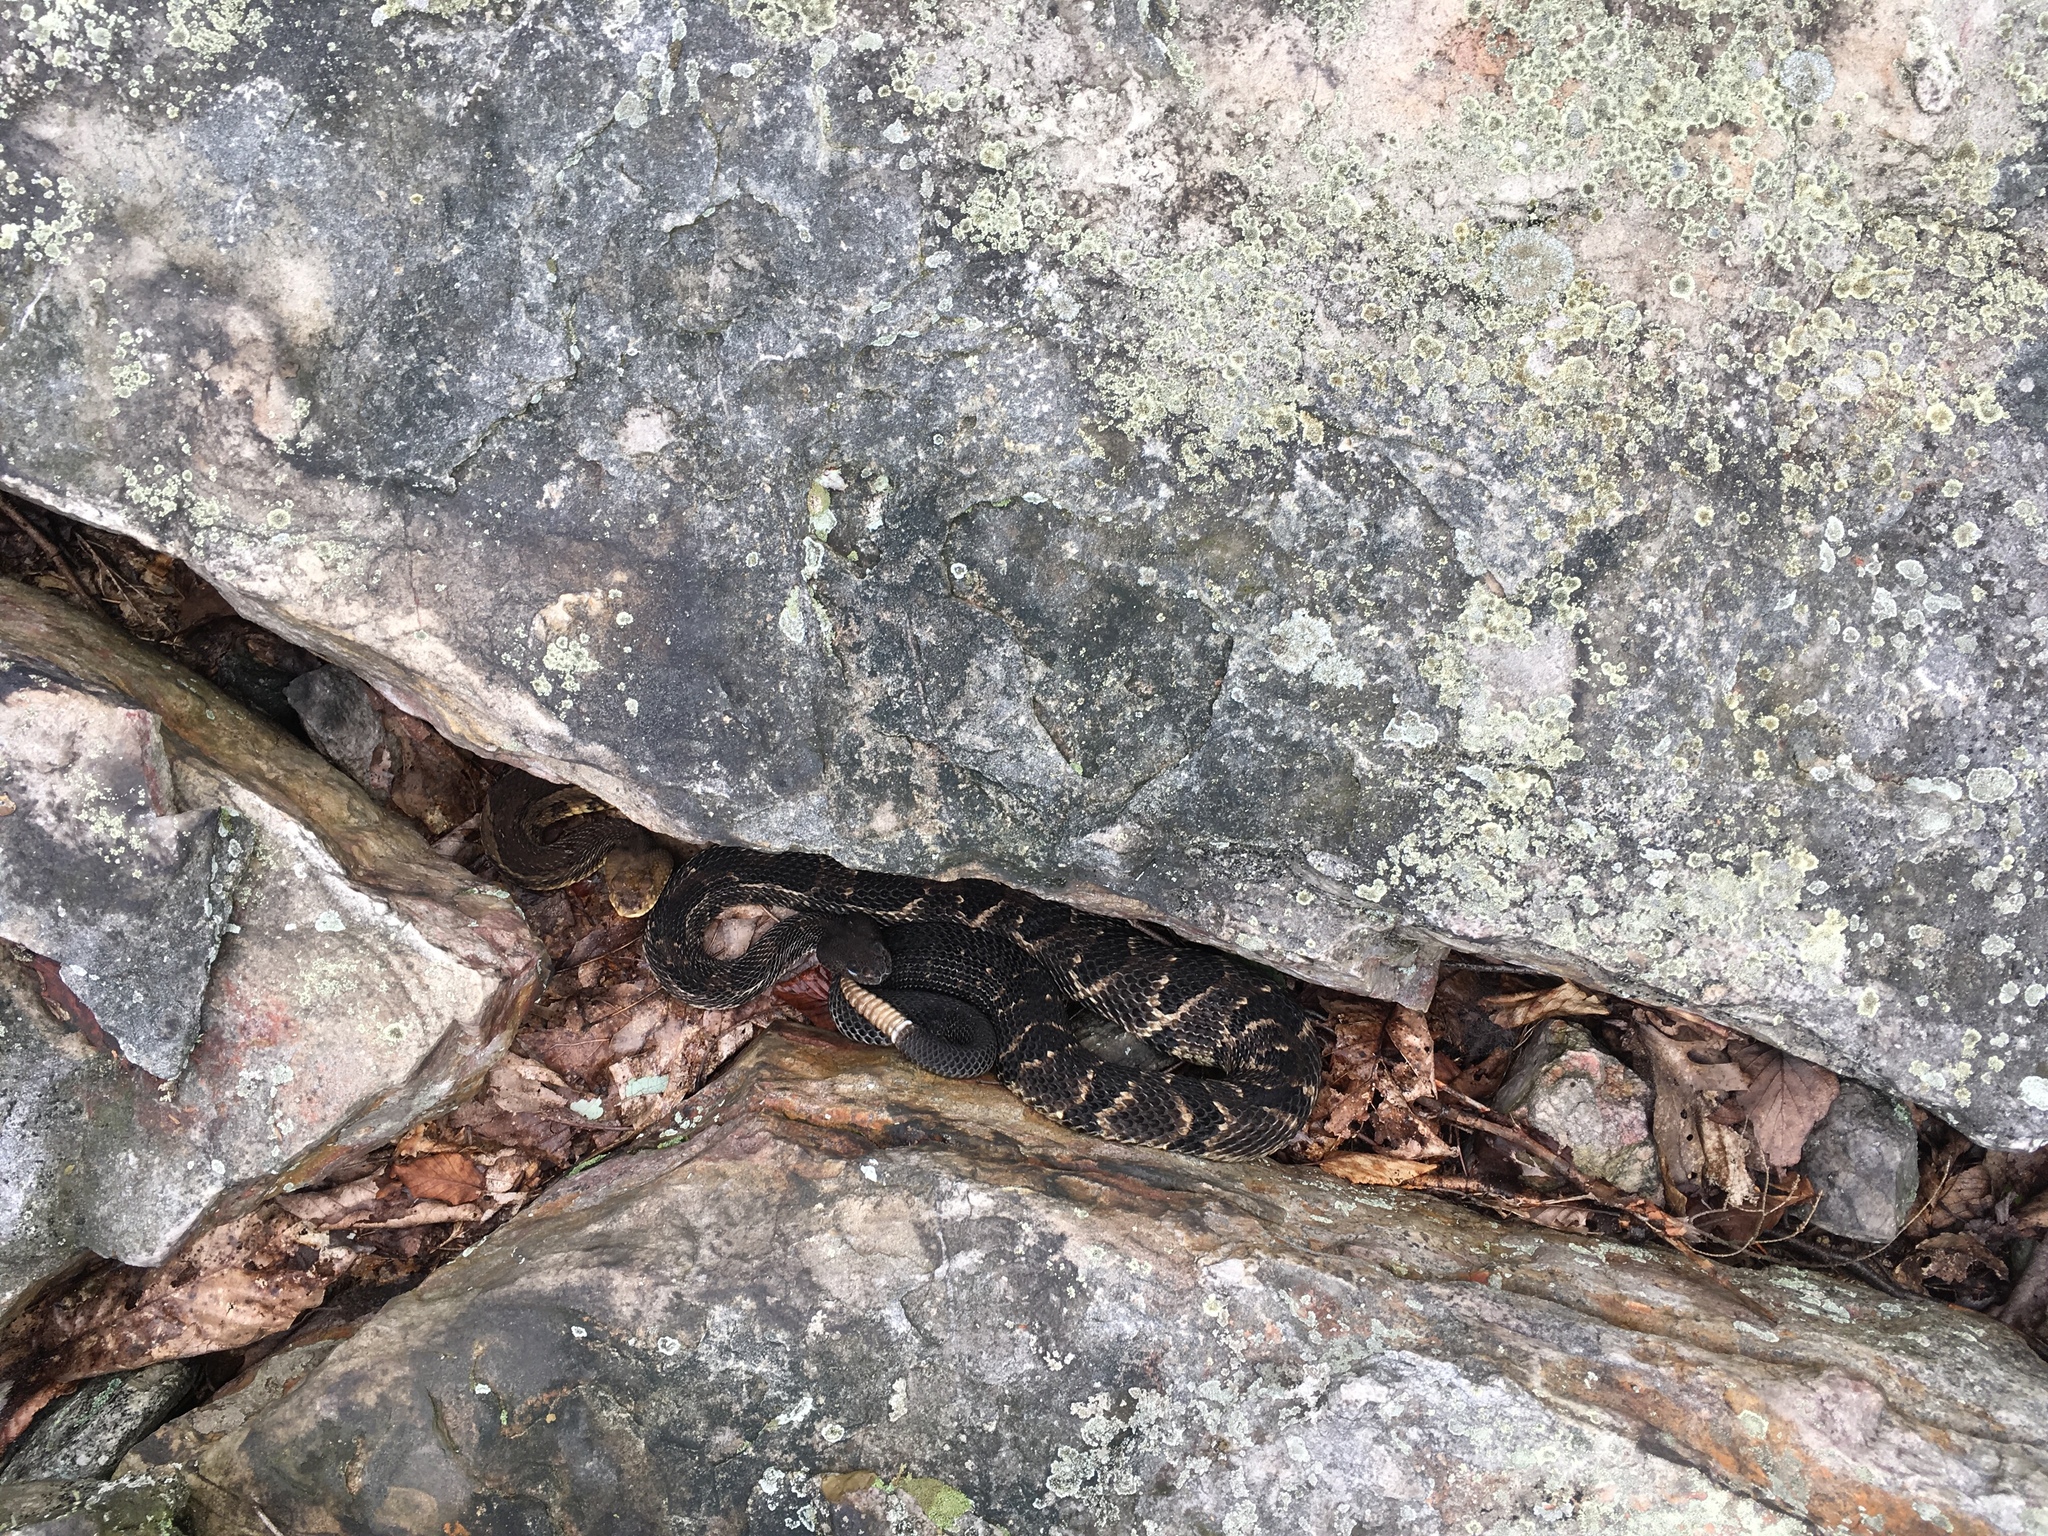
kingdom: Animalia
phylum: Chordata
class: Squamata
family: Viperidae
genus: Crotalus
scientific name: Crotalus horridus
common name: Timber rattlesnake
